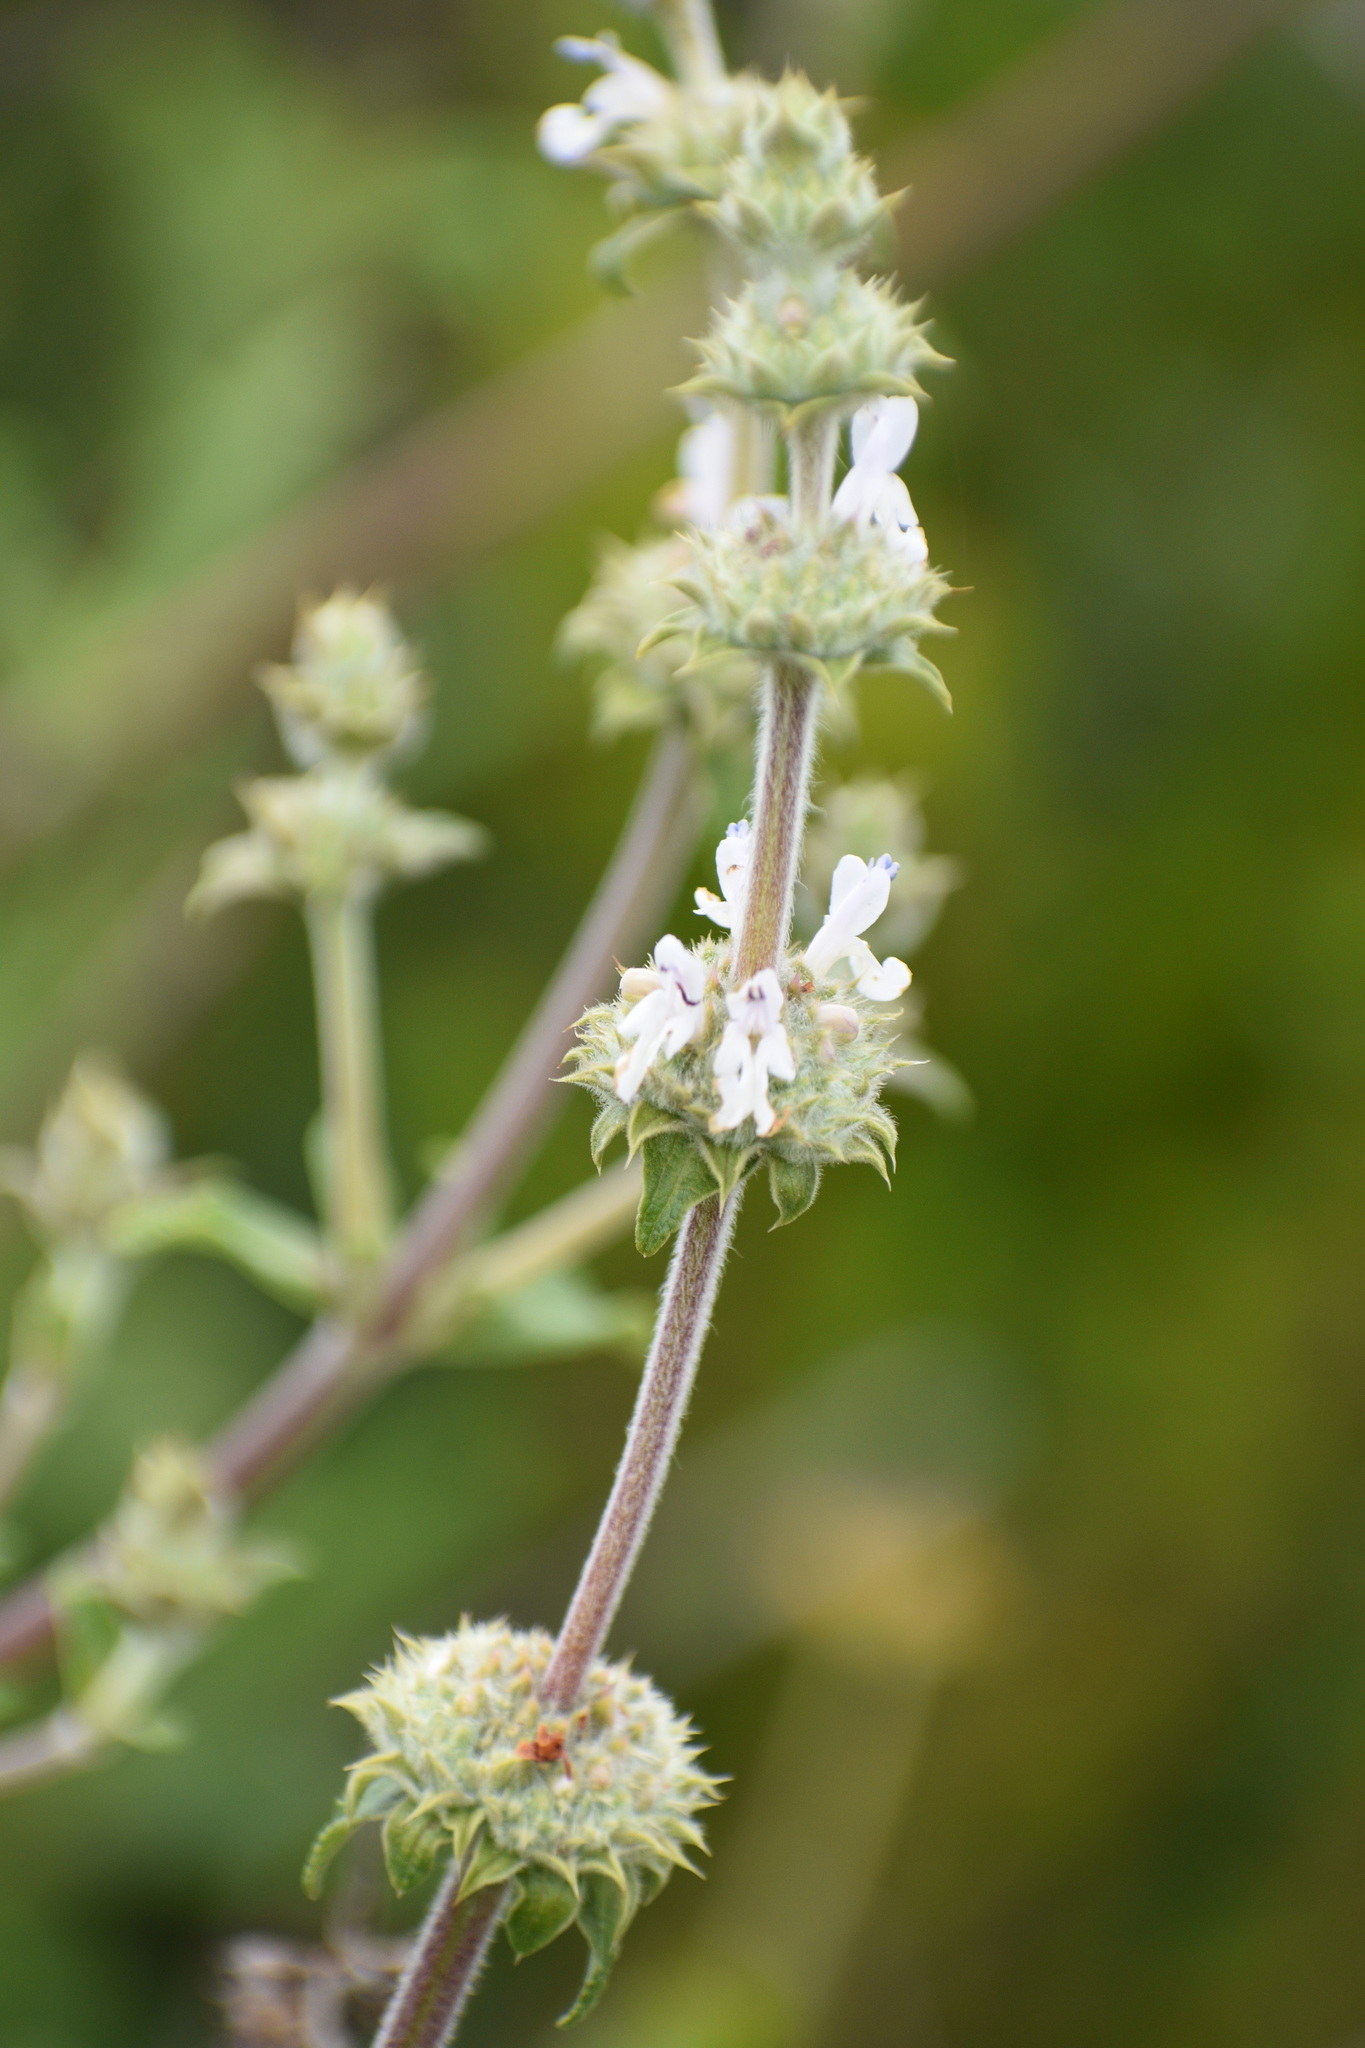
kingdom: Plantae
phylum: Tracheophyta
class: Magnoliopsida
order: Lamiales
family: Lamiaceae
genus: Salvia
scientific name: Salvia mellifera
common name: Black sage
